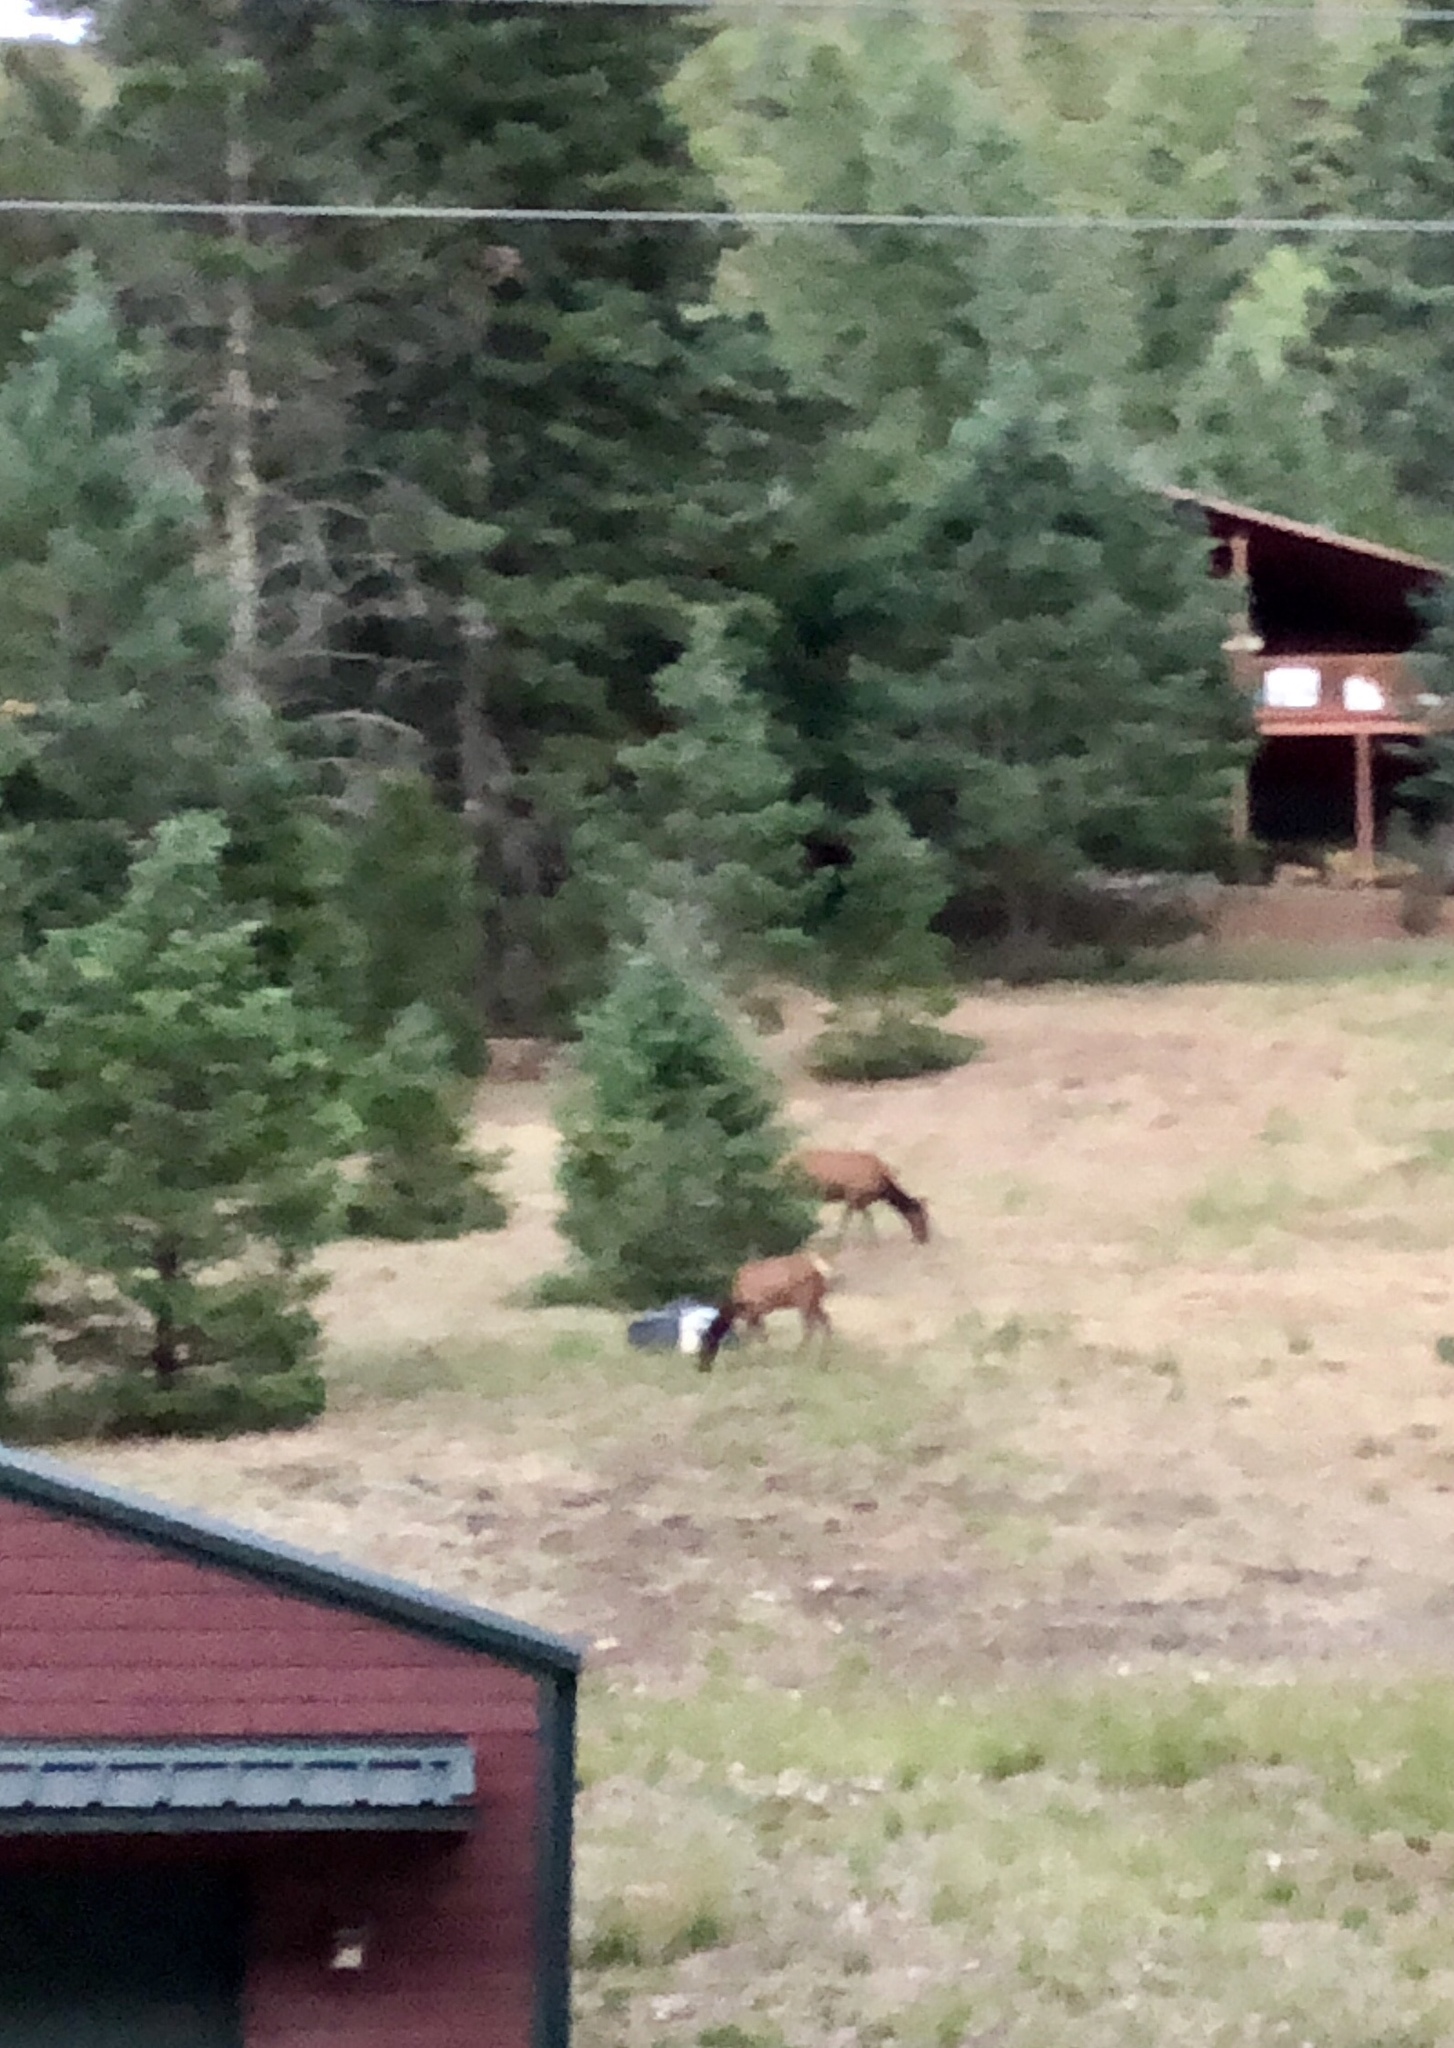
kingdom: Animalia
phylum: Chordata
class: Mammalia
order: Artiodactyla
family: Cervidae
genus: Cervus
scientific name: Cervus elaphus
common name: Red deer
